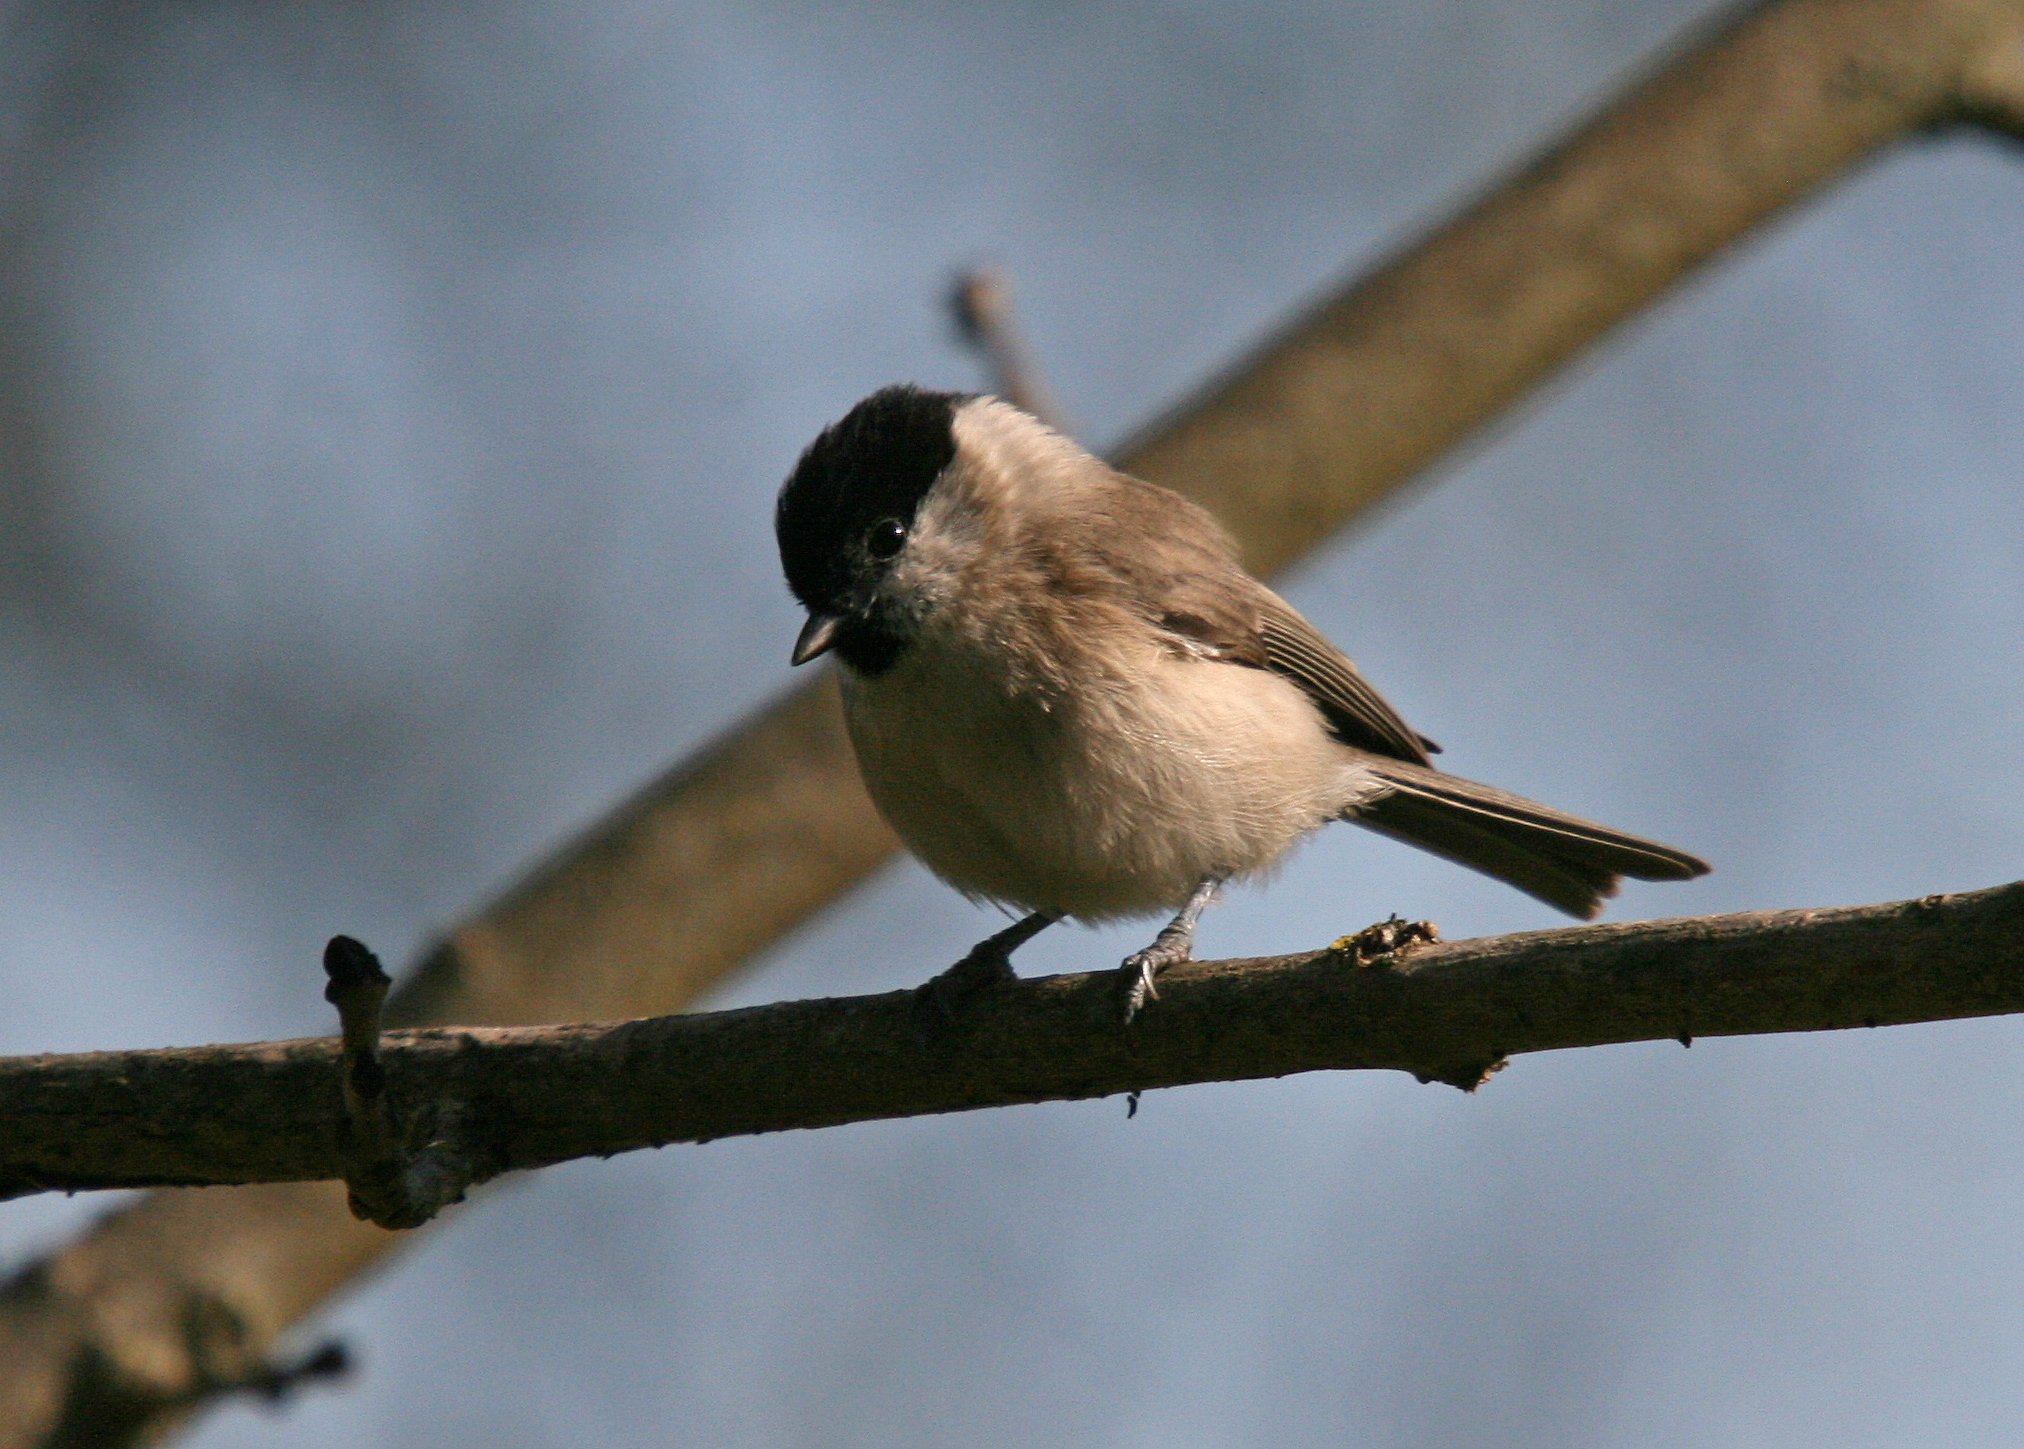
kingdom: Animalia
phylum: Chordata
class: Aves
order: Passeriformes
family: Paridae
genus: Poecile
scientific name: Poecile palustris
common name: Marsh tit
